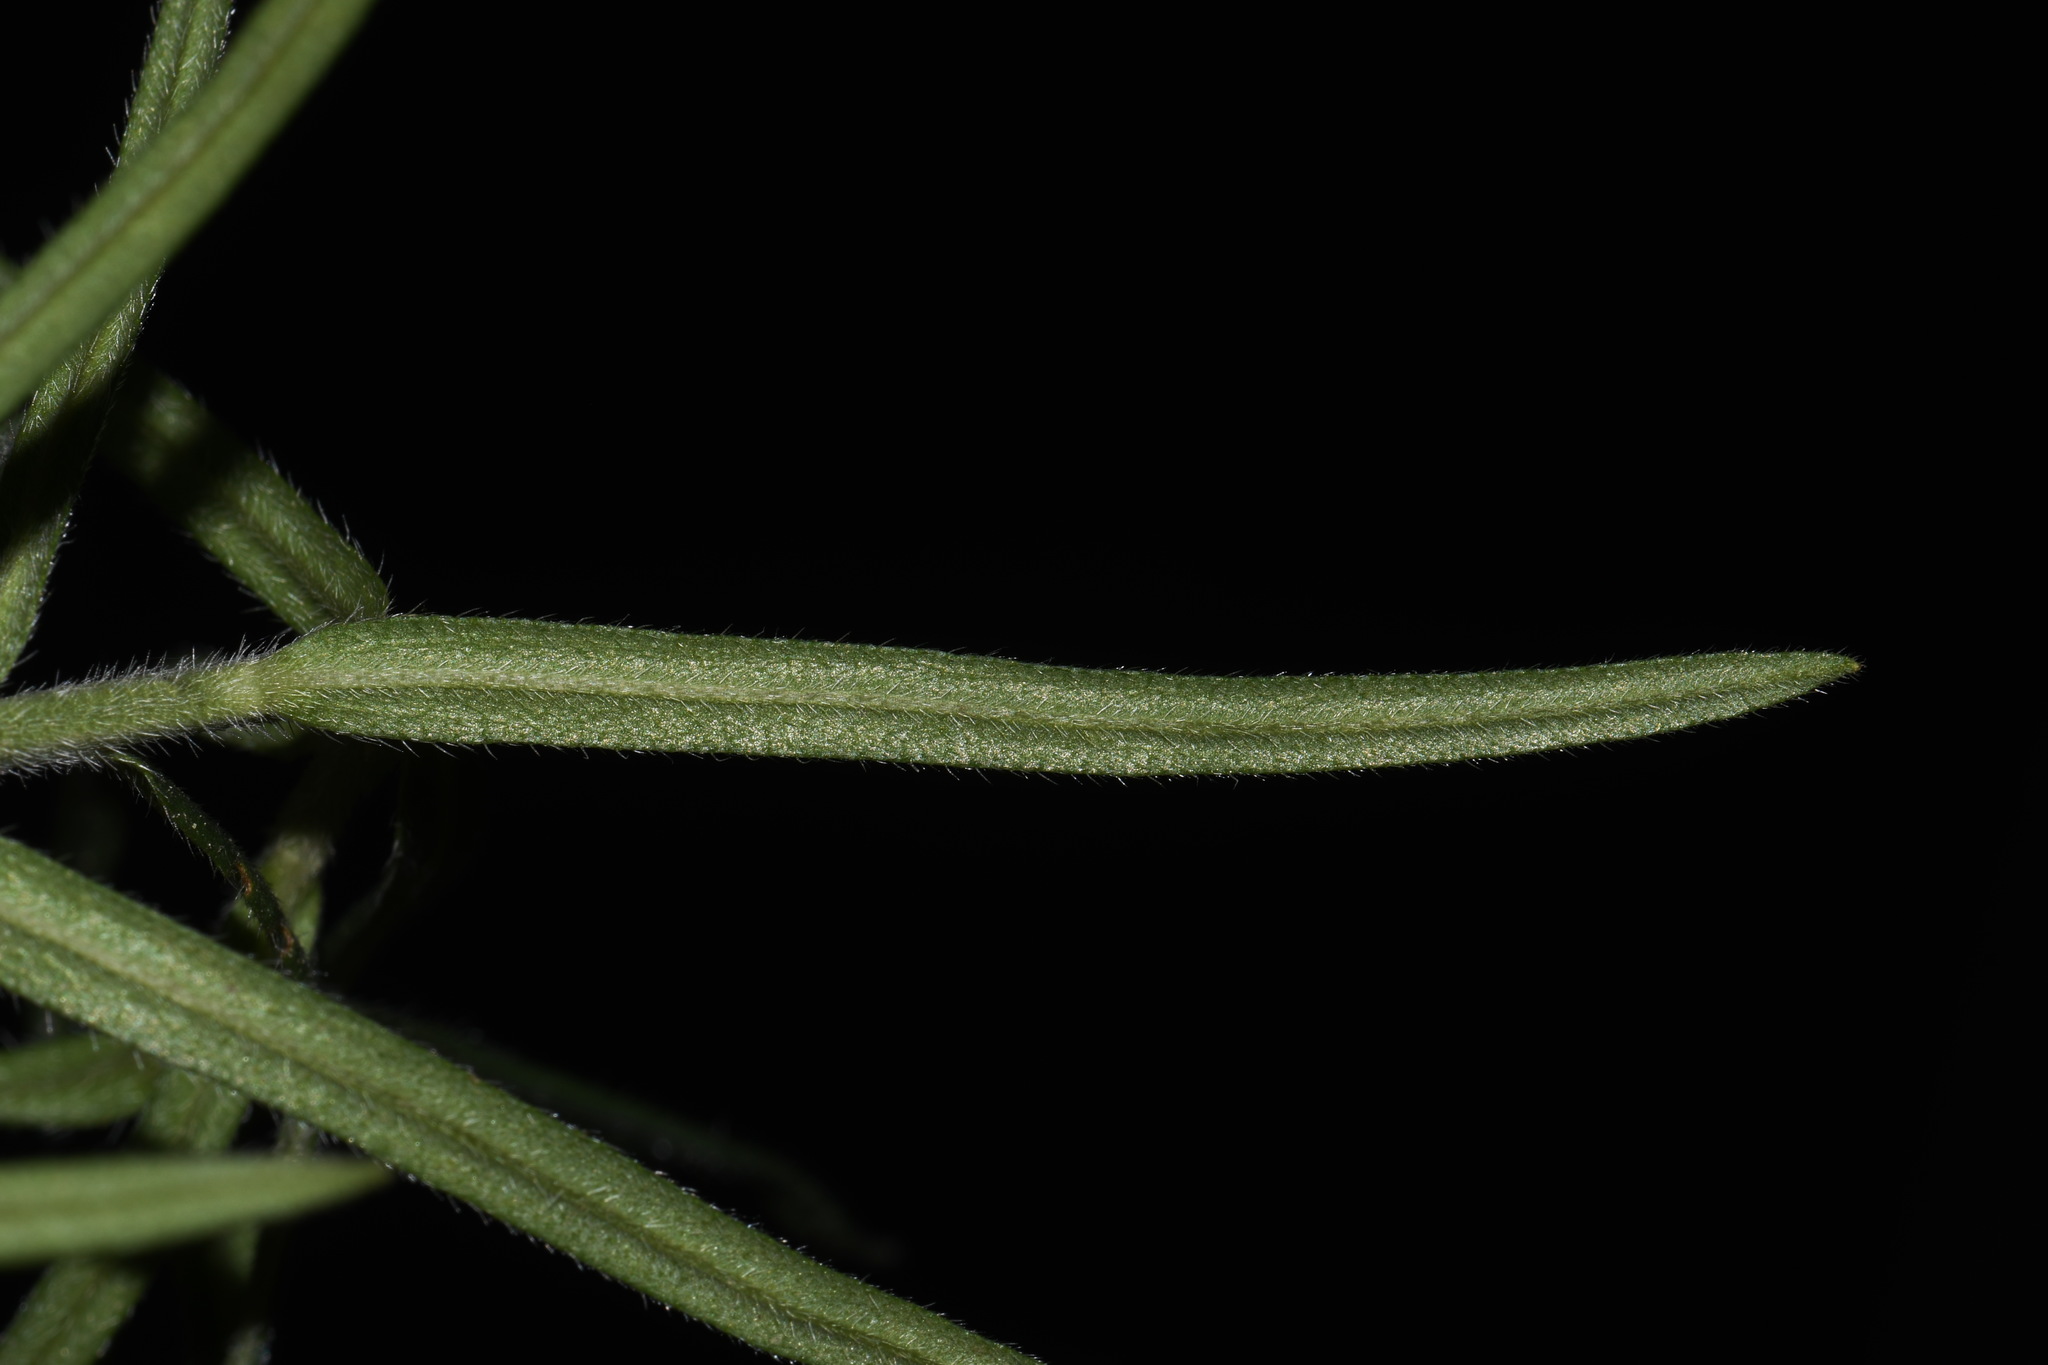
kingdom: Plantae
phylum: Tracheophyta
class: Magnoliopsida
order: Boraginales
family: Boraginaceae
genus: Lithospermum
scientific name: Lithospermum multiflorum
